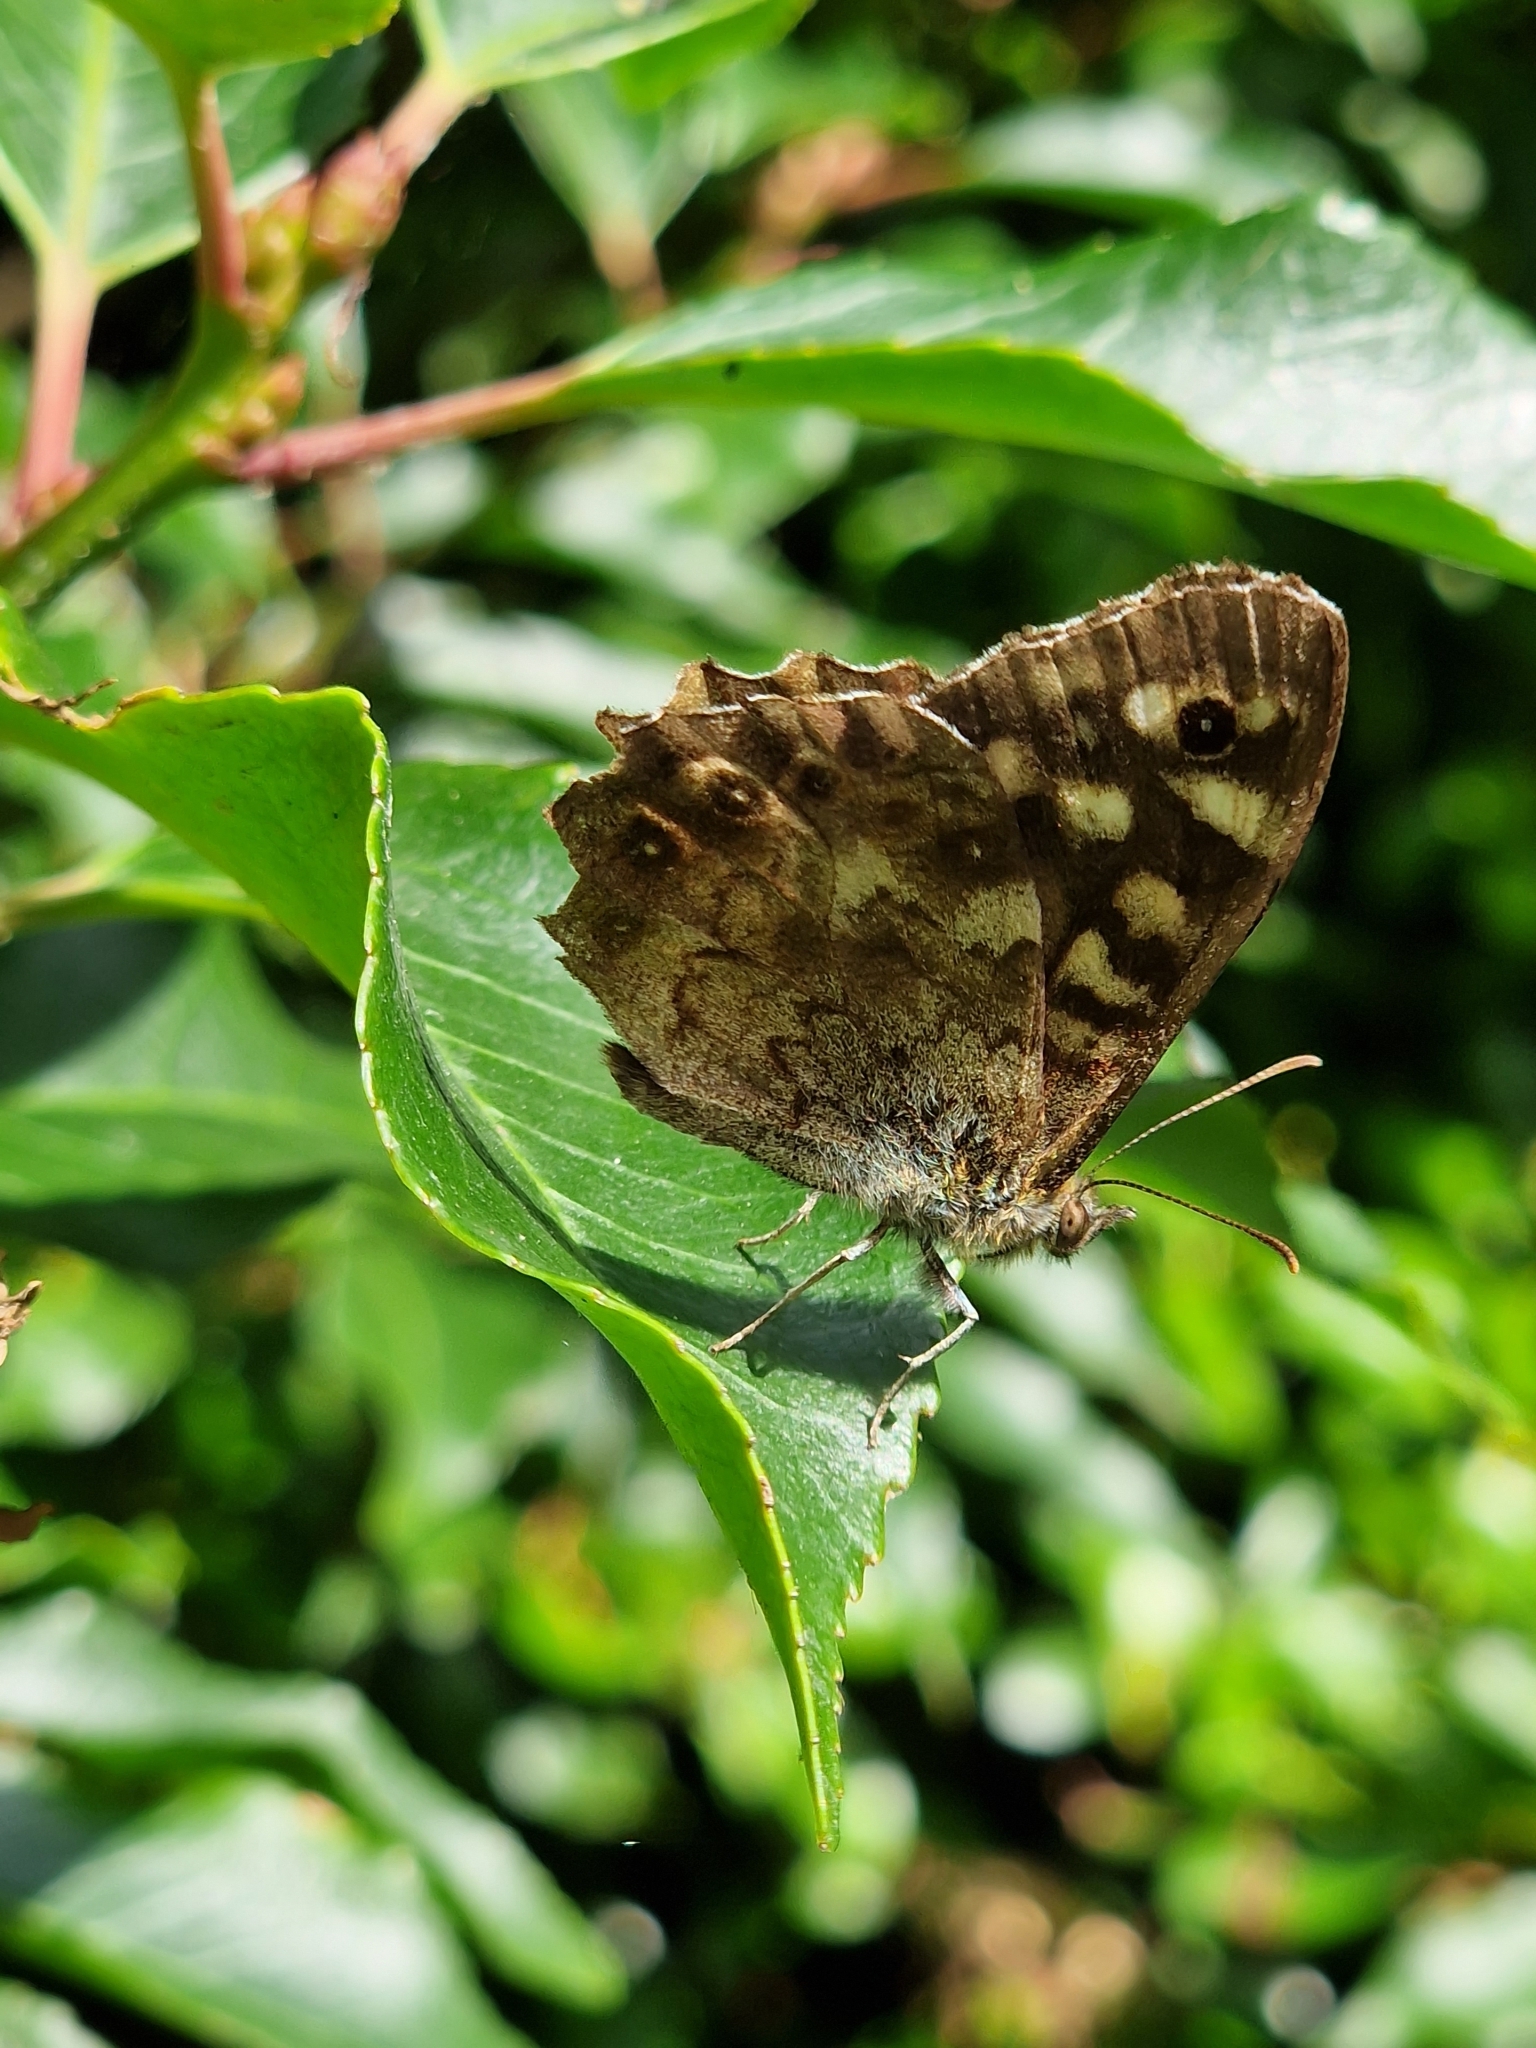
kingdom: Animalia
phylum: Arthropoda
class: Insecta
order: Lepidoptera
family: Nymphalidae
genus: Pararge
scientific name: Pararge aegeria
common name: Speckled wood
